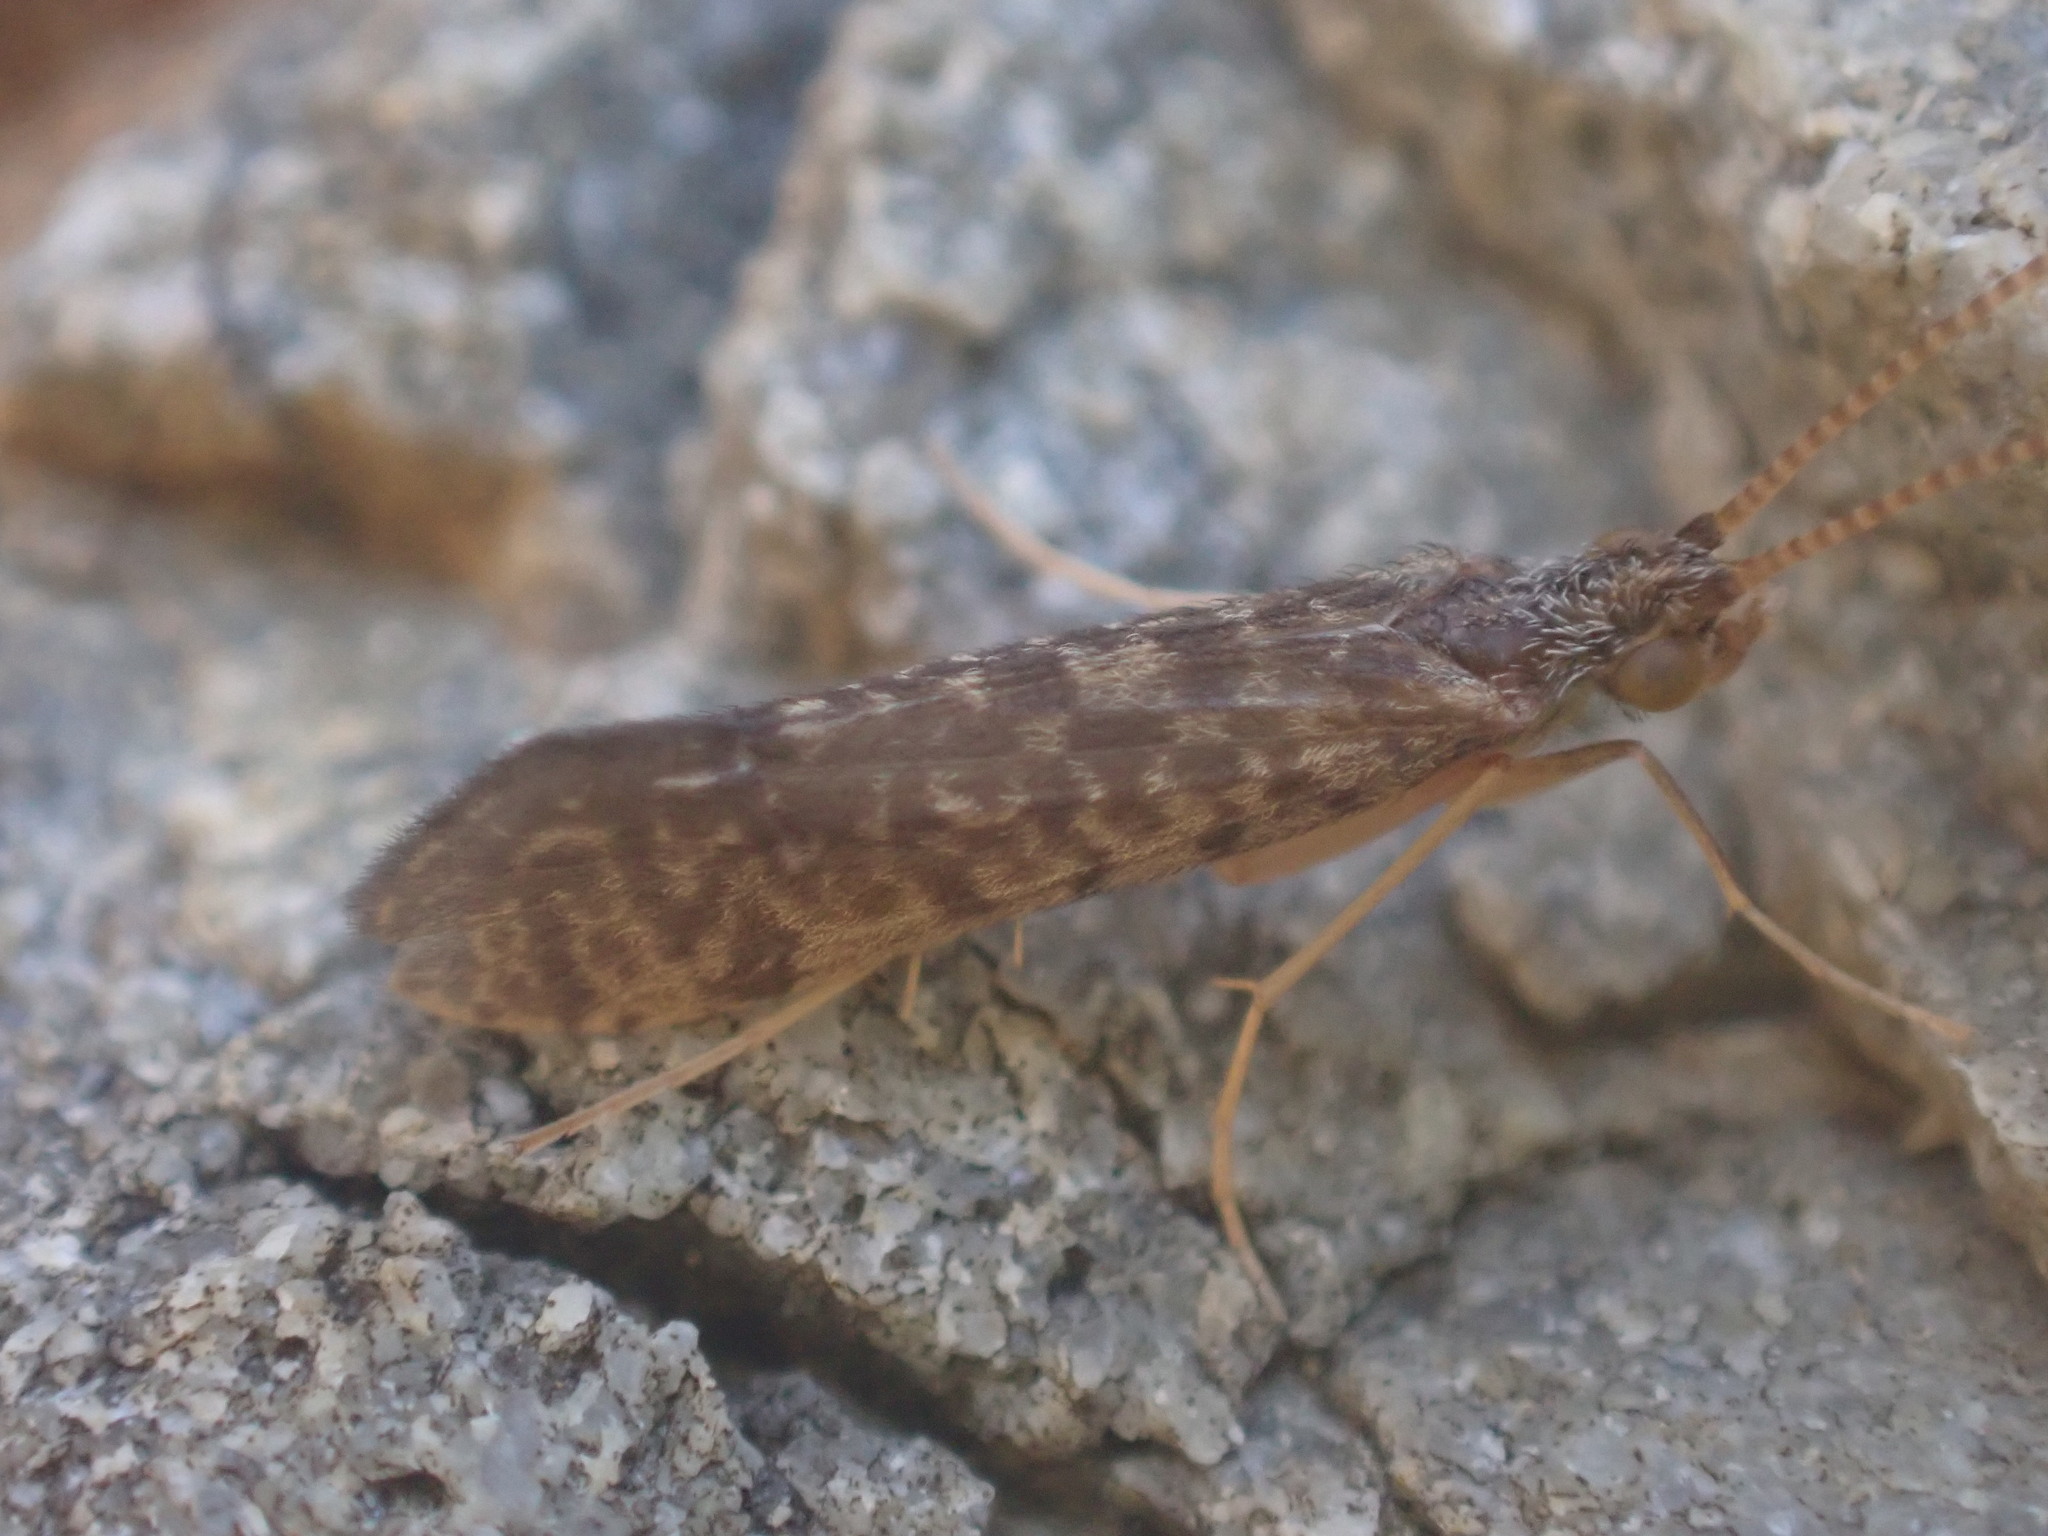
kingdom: Animalia
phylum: Arthropoda
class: Insecta
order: Trichoptera
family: Chathamiidae
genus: Philanisus
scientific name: Philanisus plebeius
